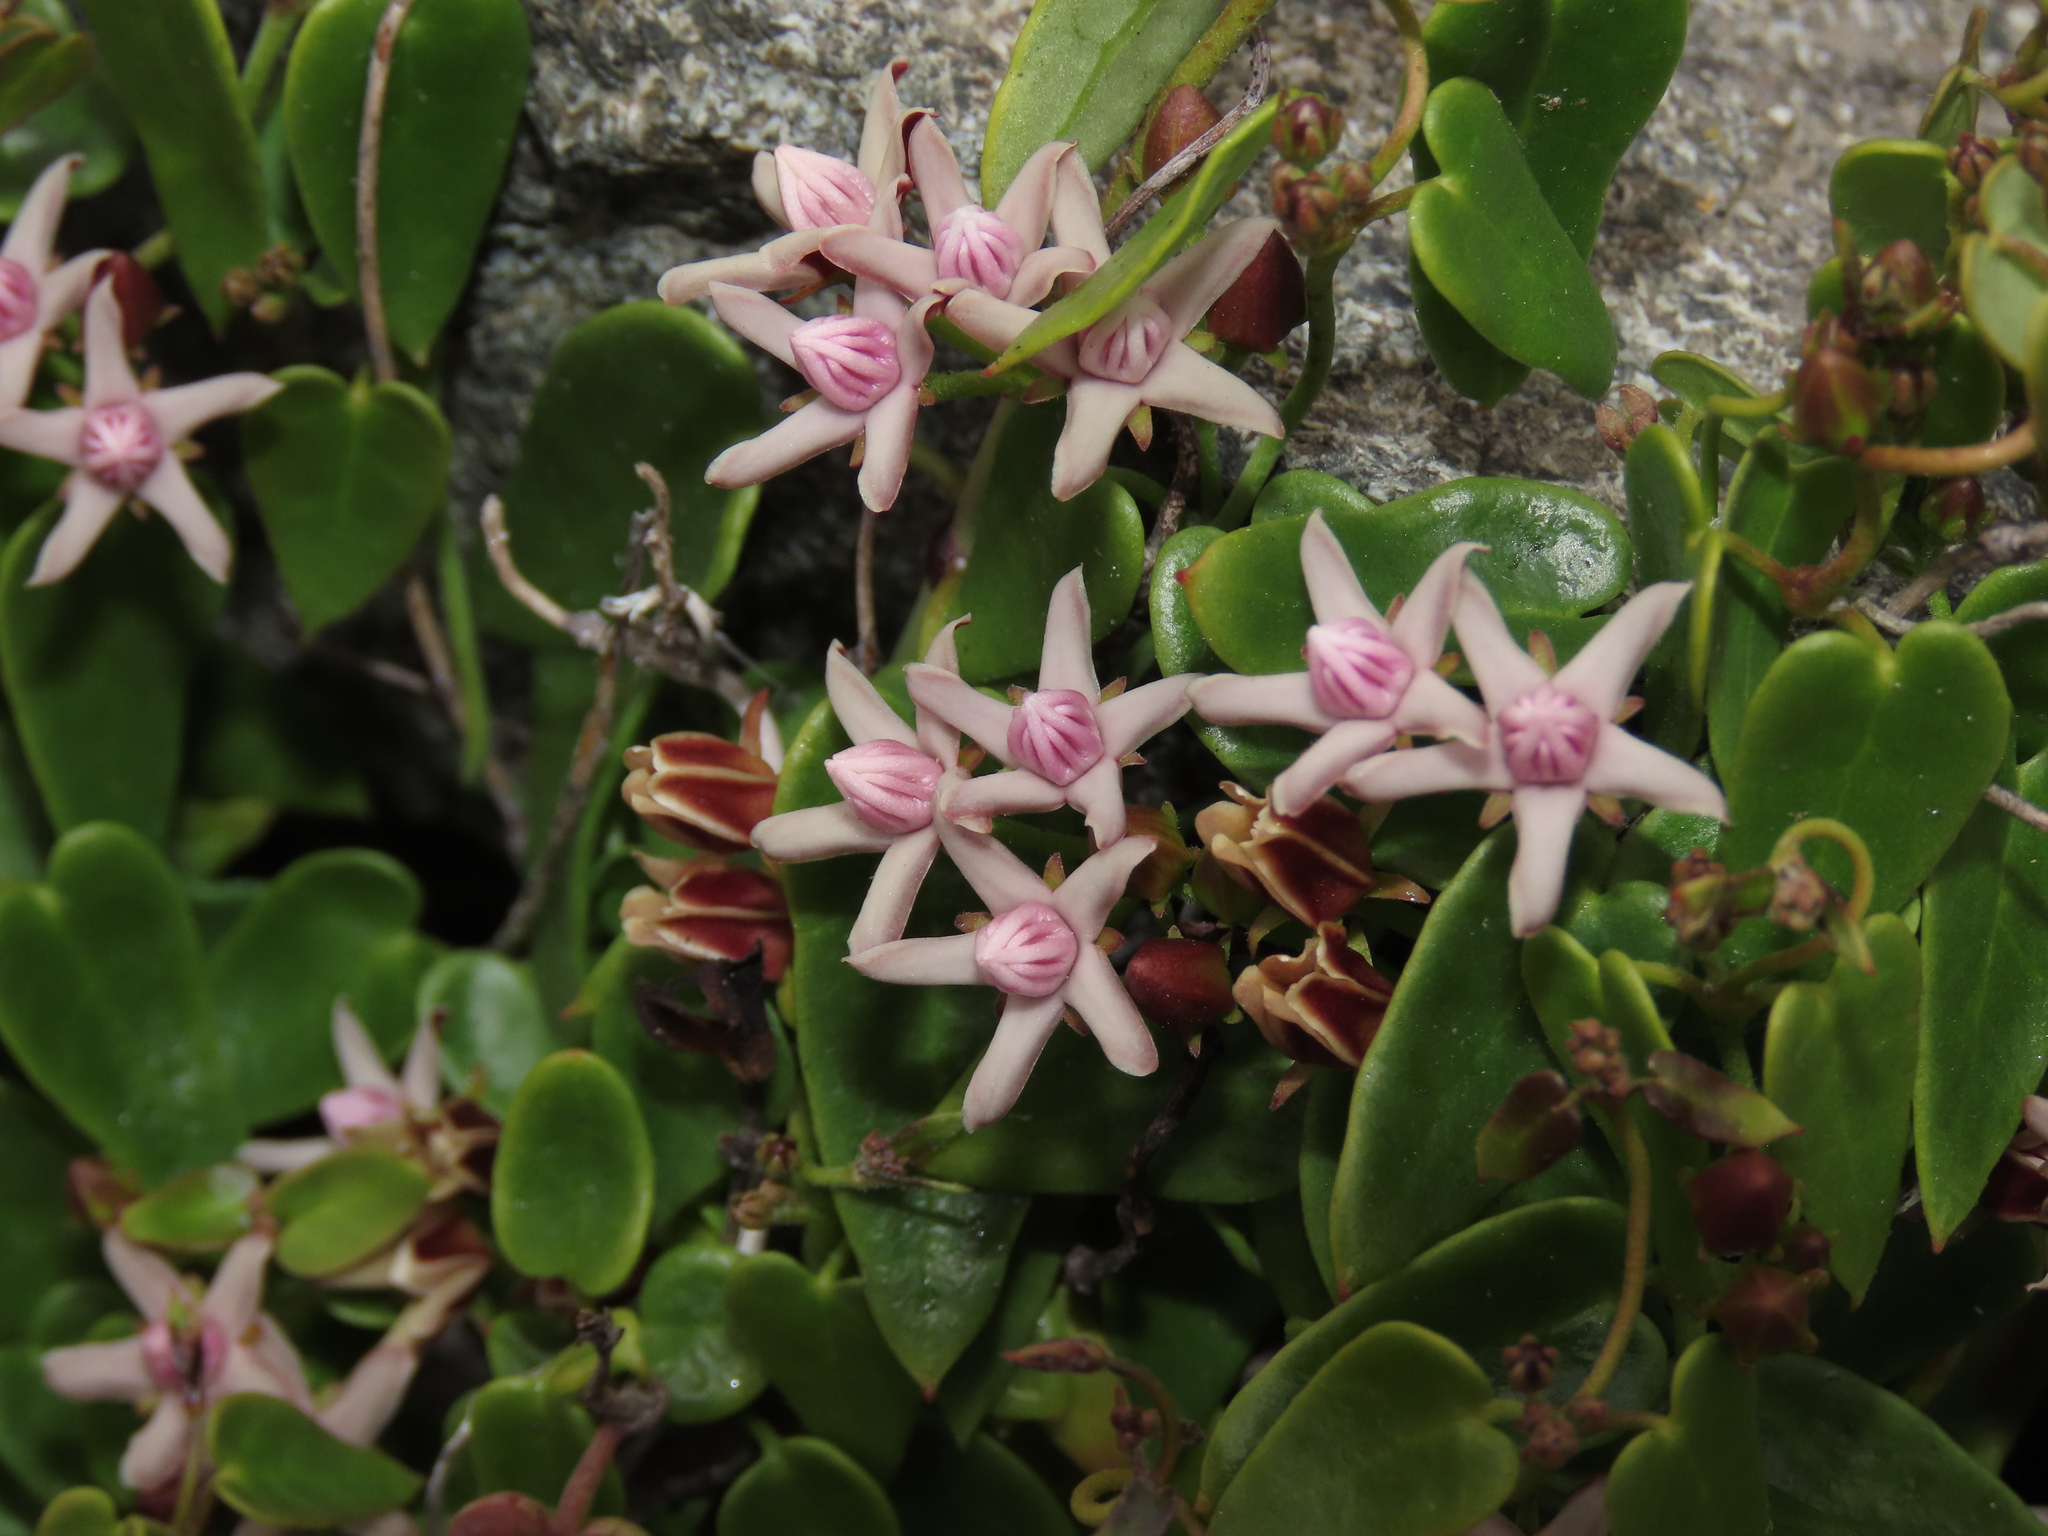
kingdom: Plantae
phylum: Tracheophyta
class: Magnoliopsida
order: Gentianales
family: Apocynaceae
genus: Diplolepis
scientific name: Diplolepis boerhaviifolia
